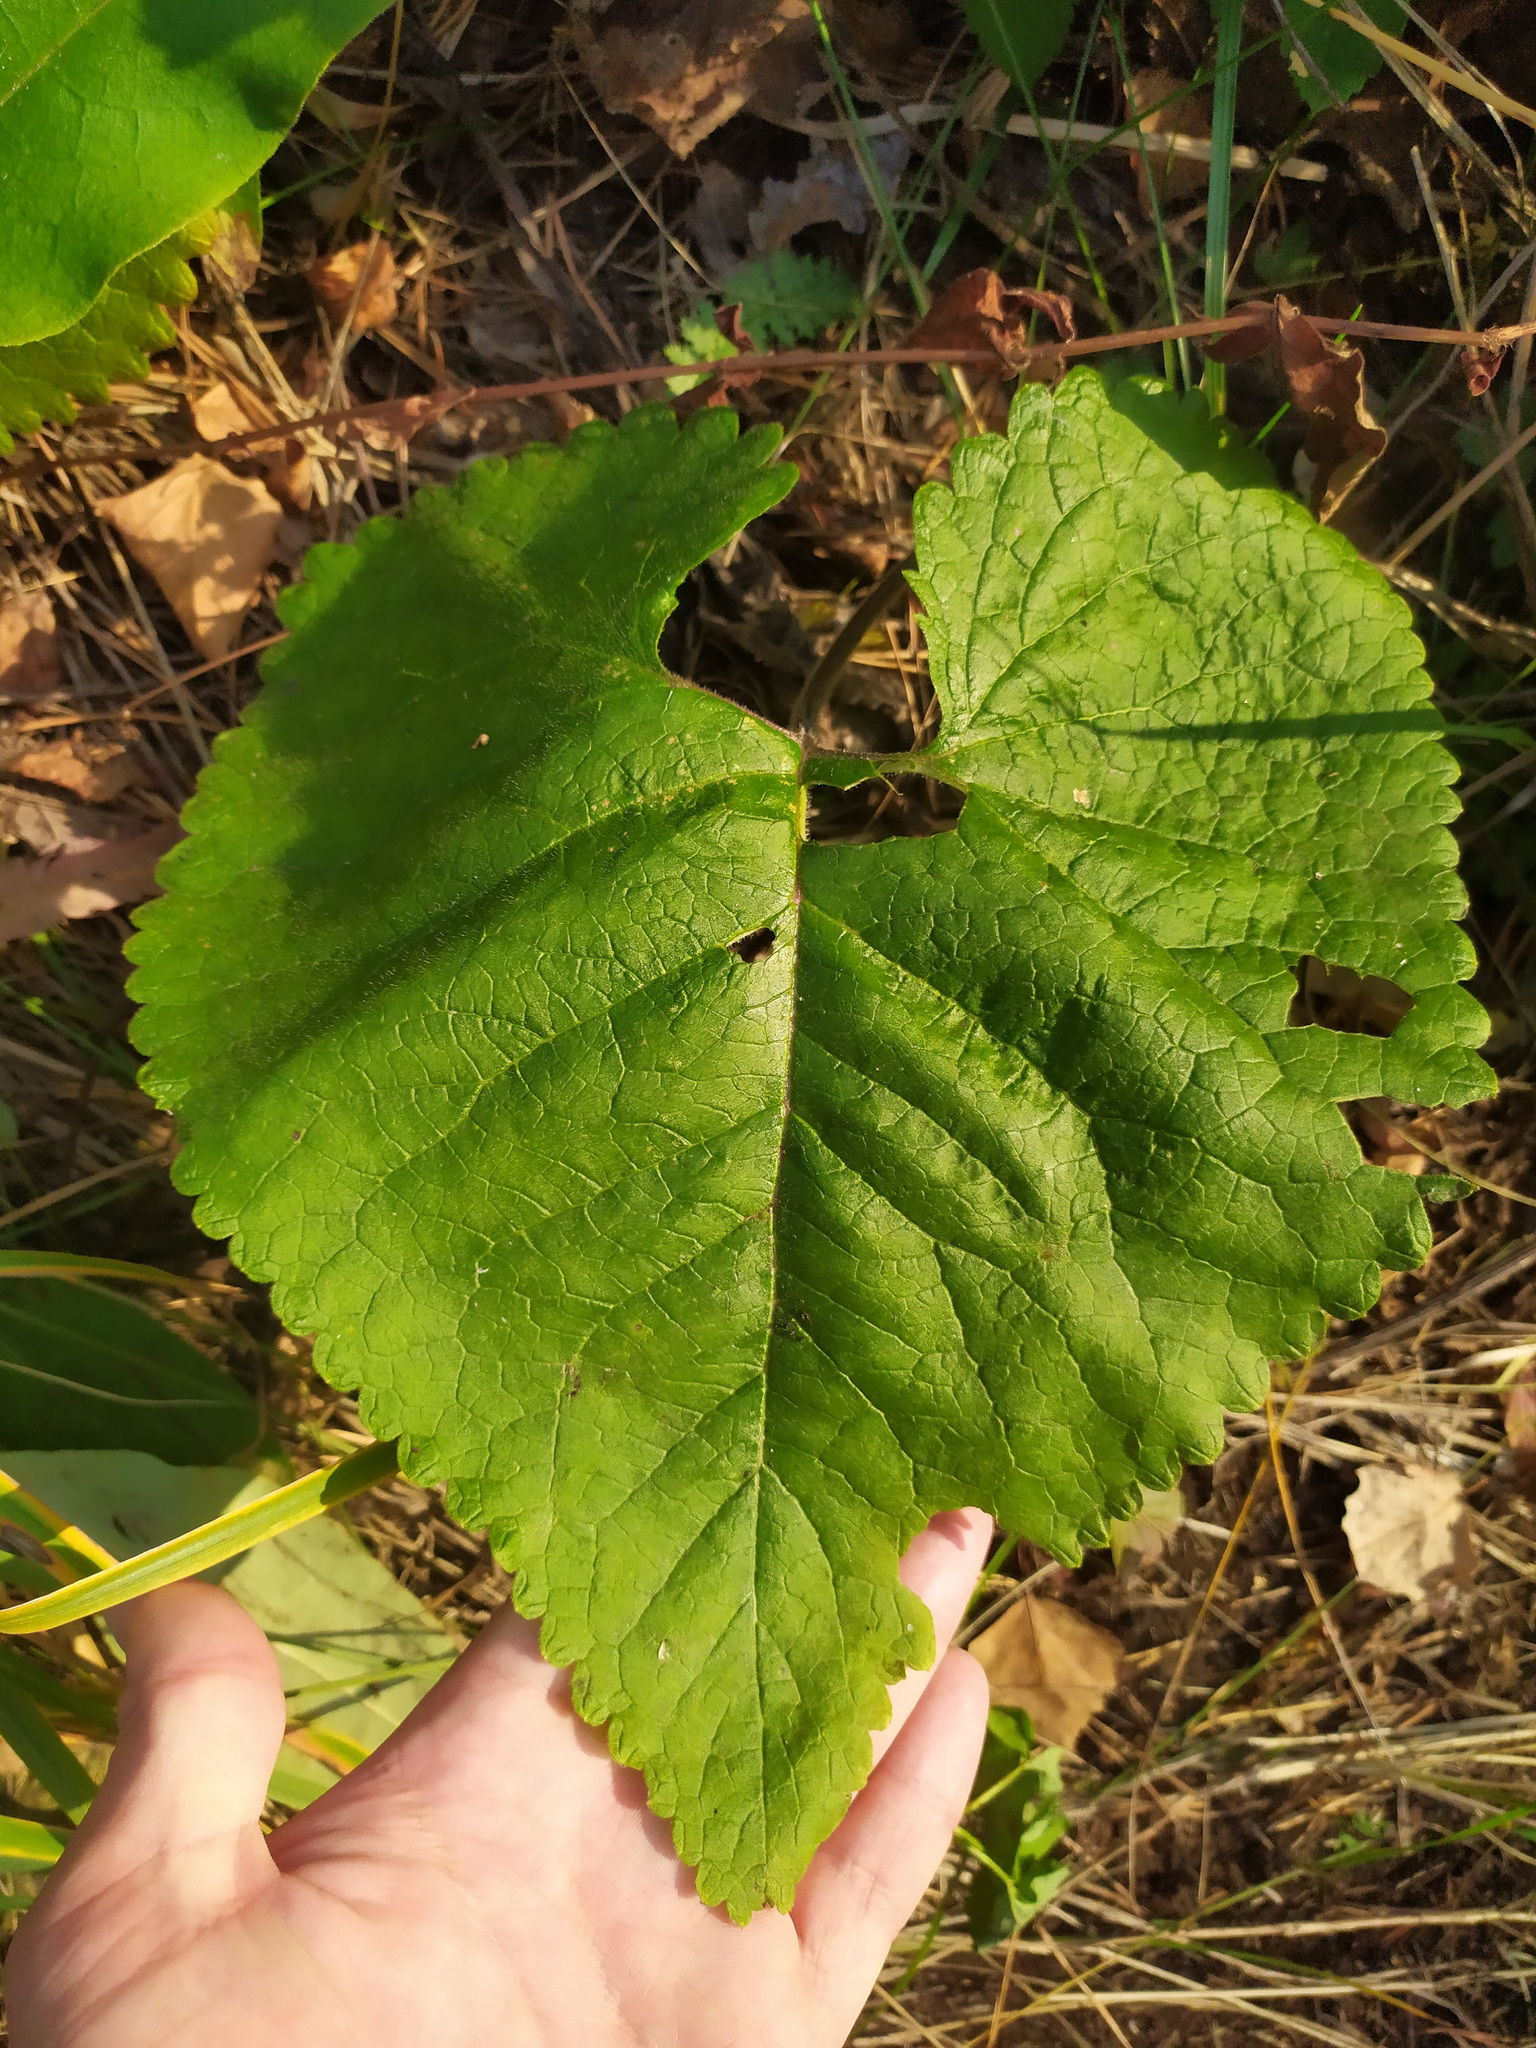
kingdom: Plantae
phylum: Tracheophyta
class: Magnoliopsida
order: Lamiales
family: Lamiaceae
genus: Phlomoides
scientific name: Phlomoides tuberosa
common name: Tuberous jerusalem sage
